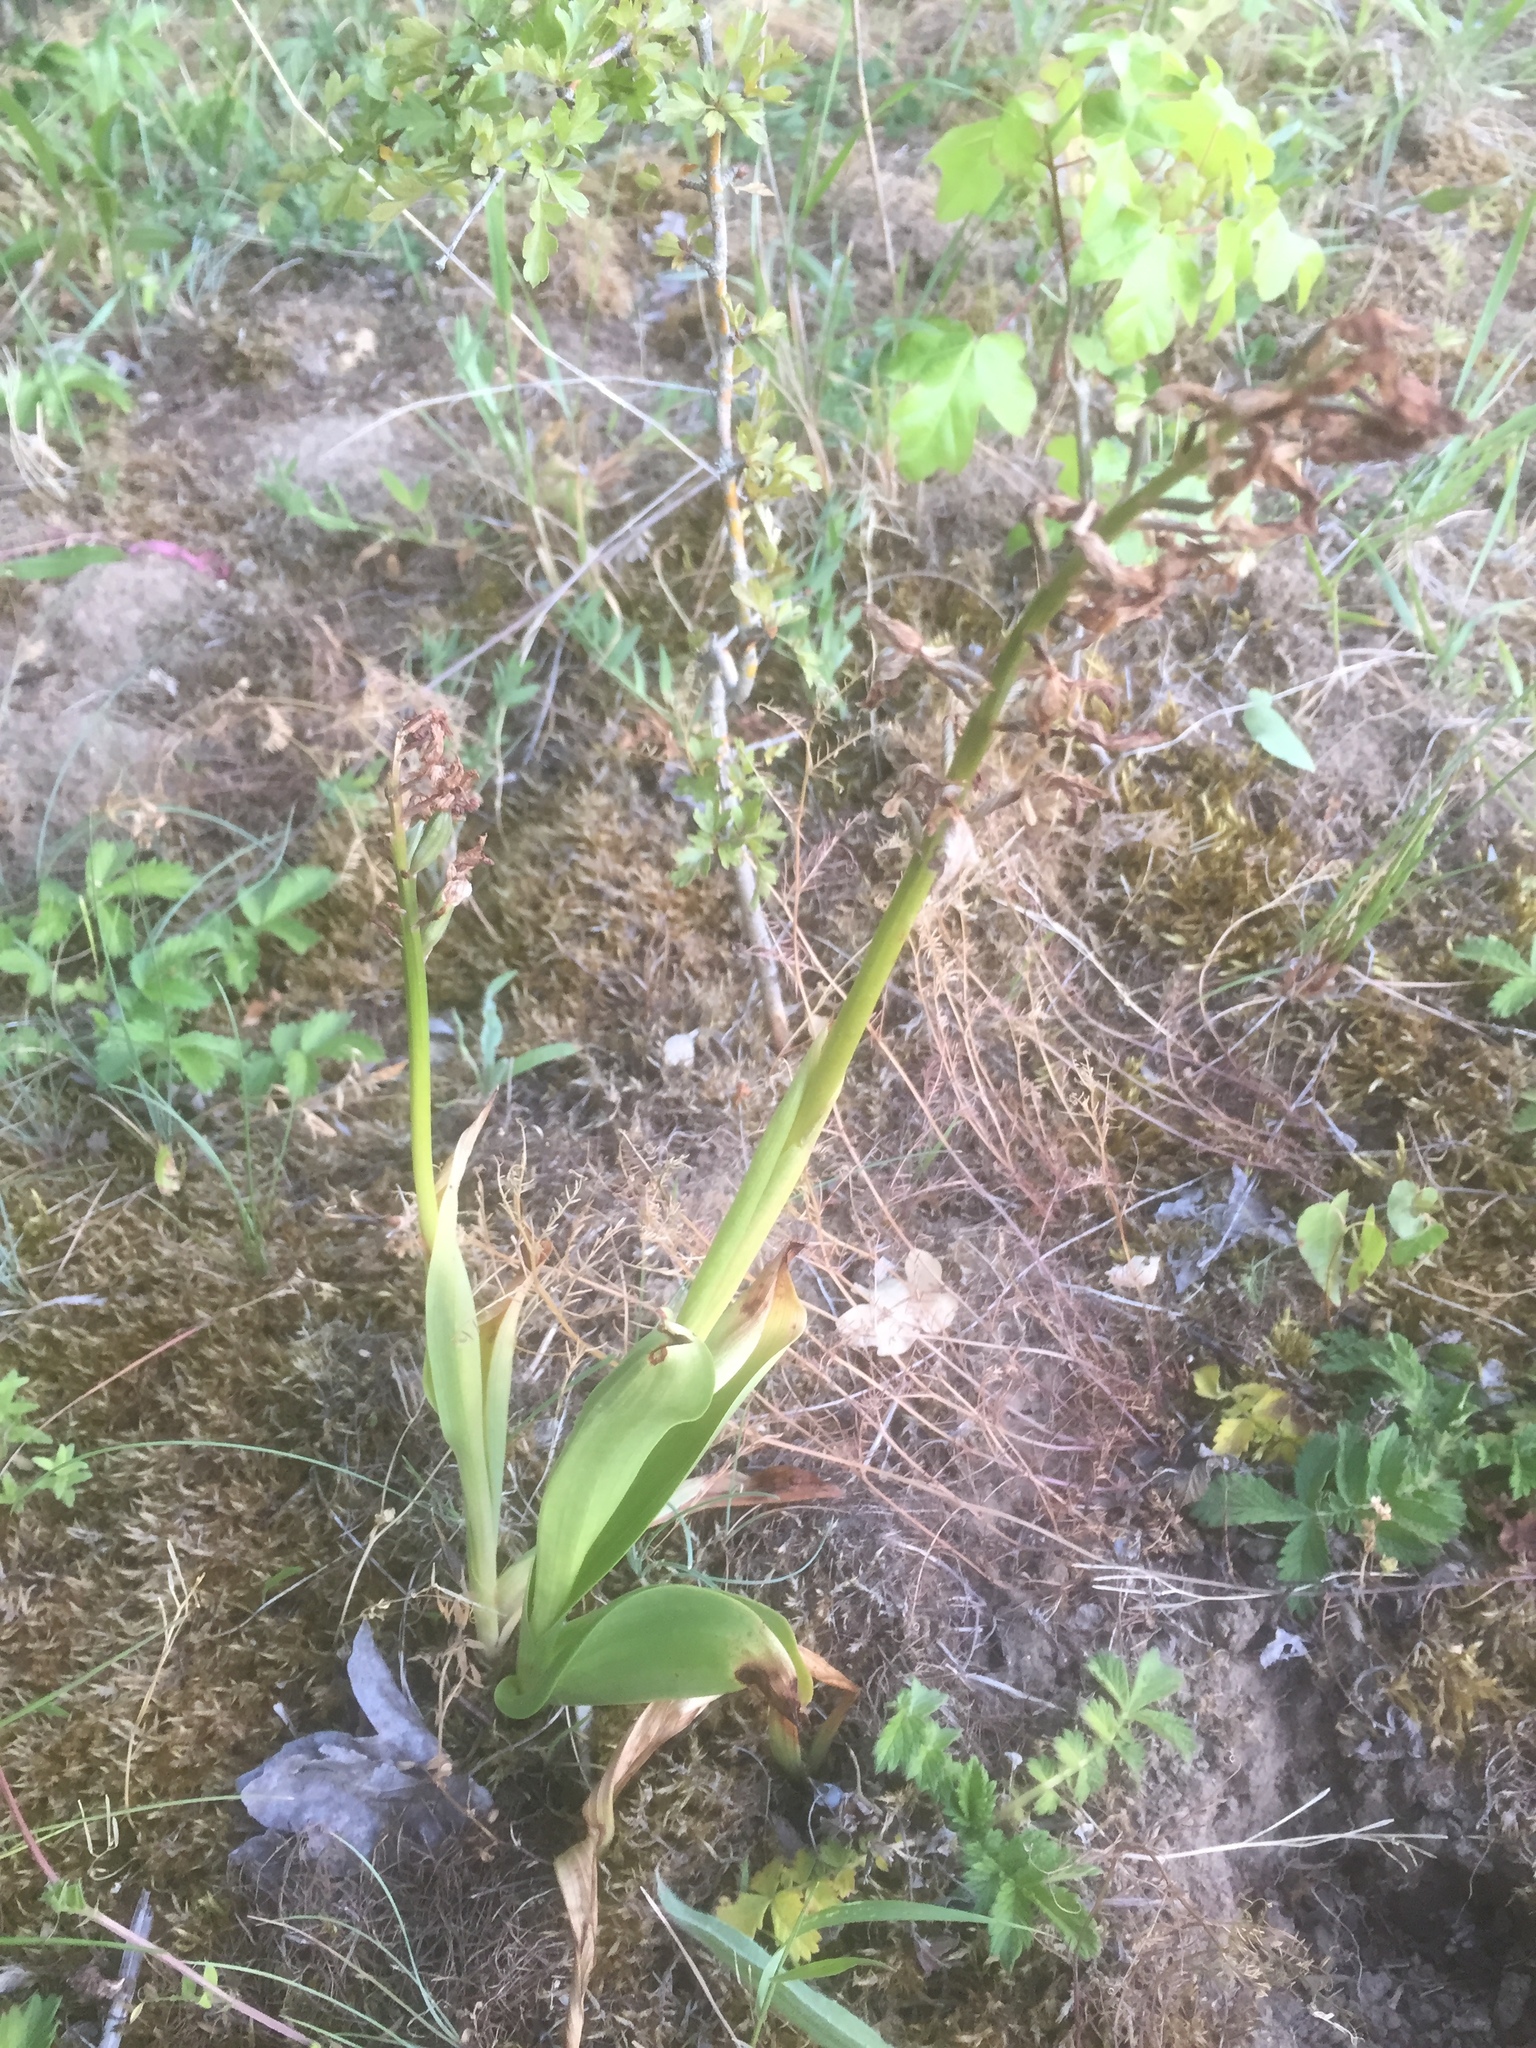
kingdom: Plantae
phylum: Tracheophyta
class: Liliopsida
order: Asparagales
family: Orchidaceae
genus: Orchis
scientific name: Orchis militaris
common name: Military orchid
